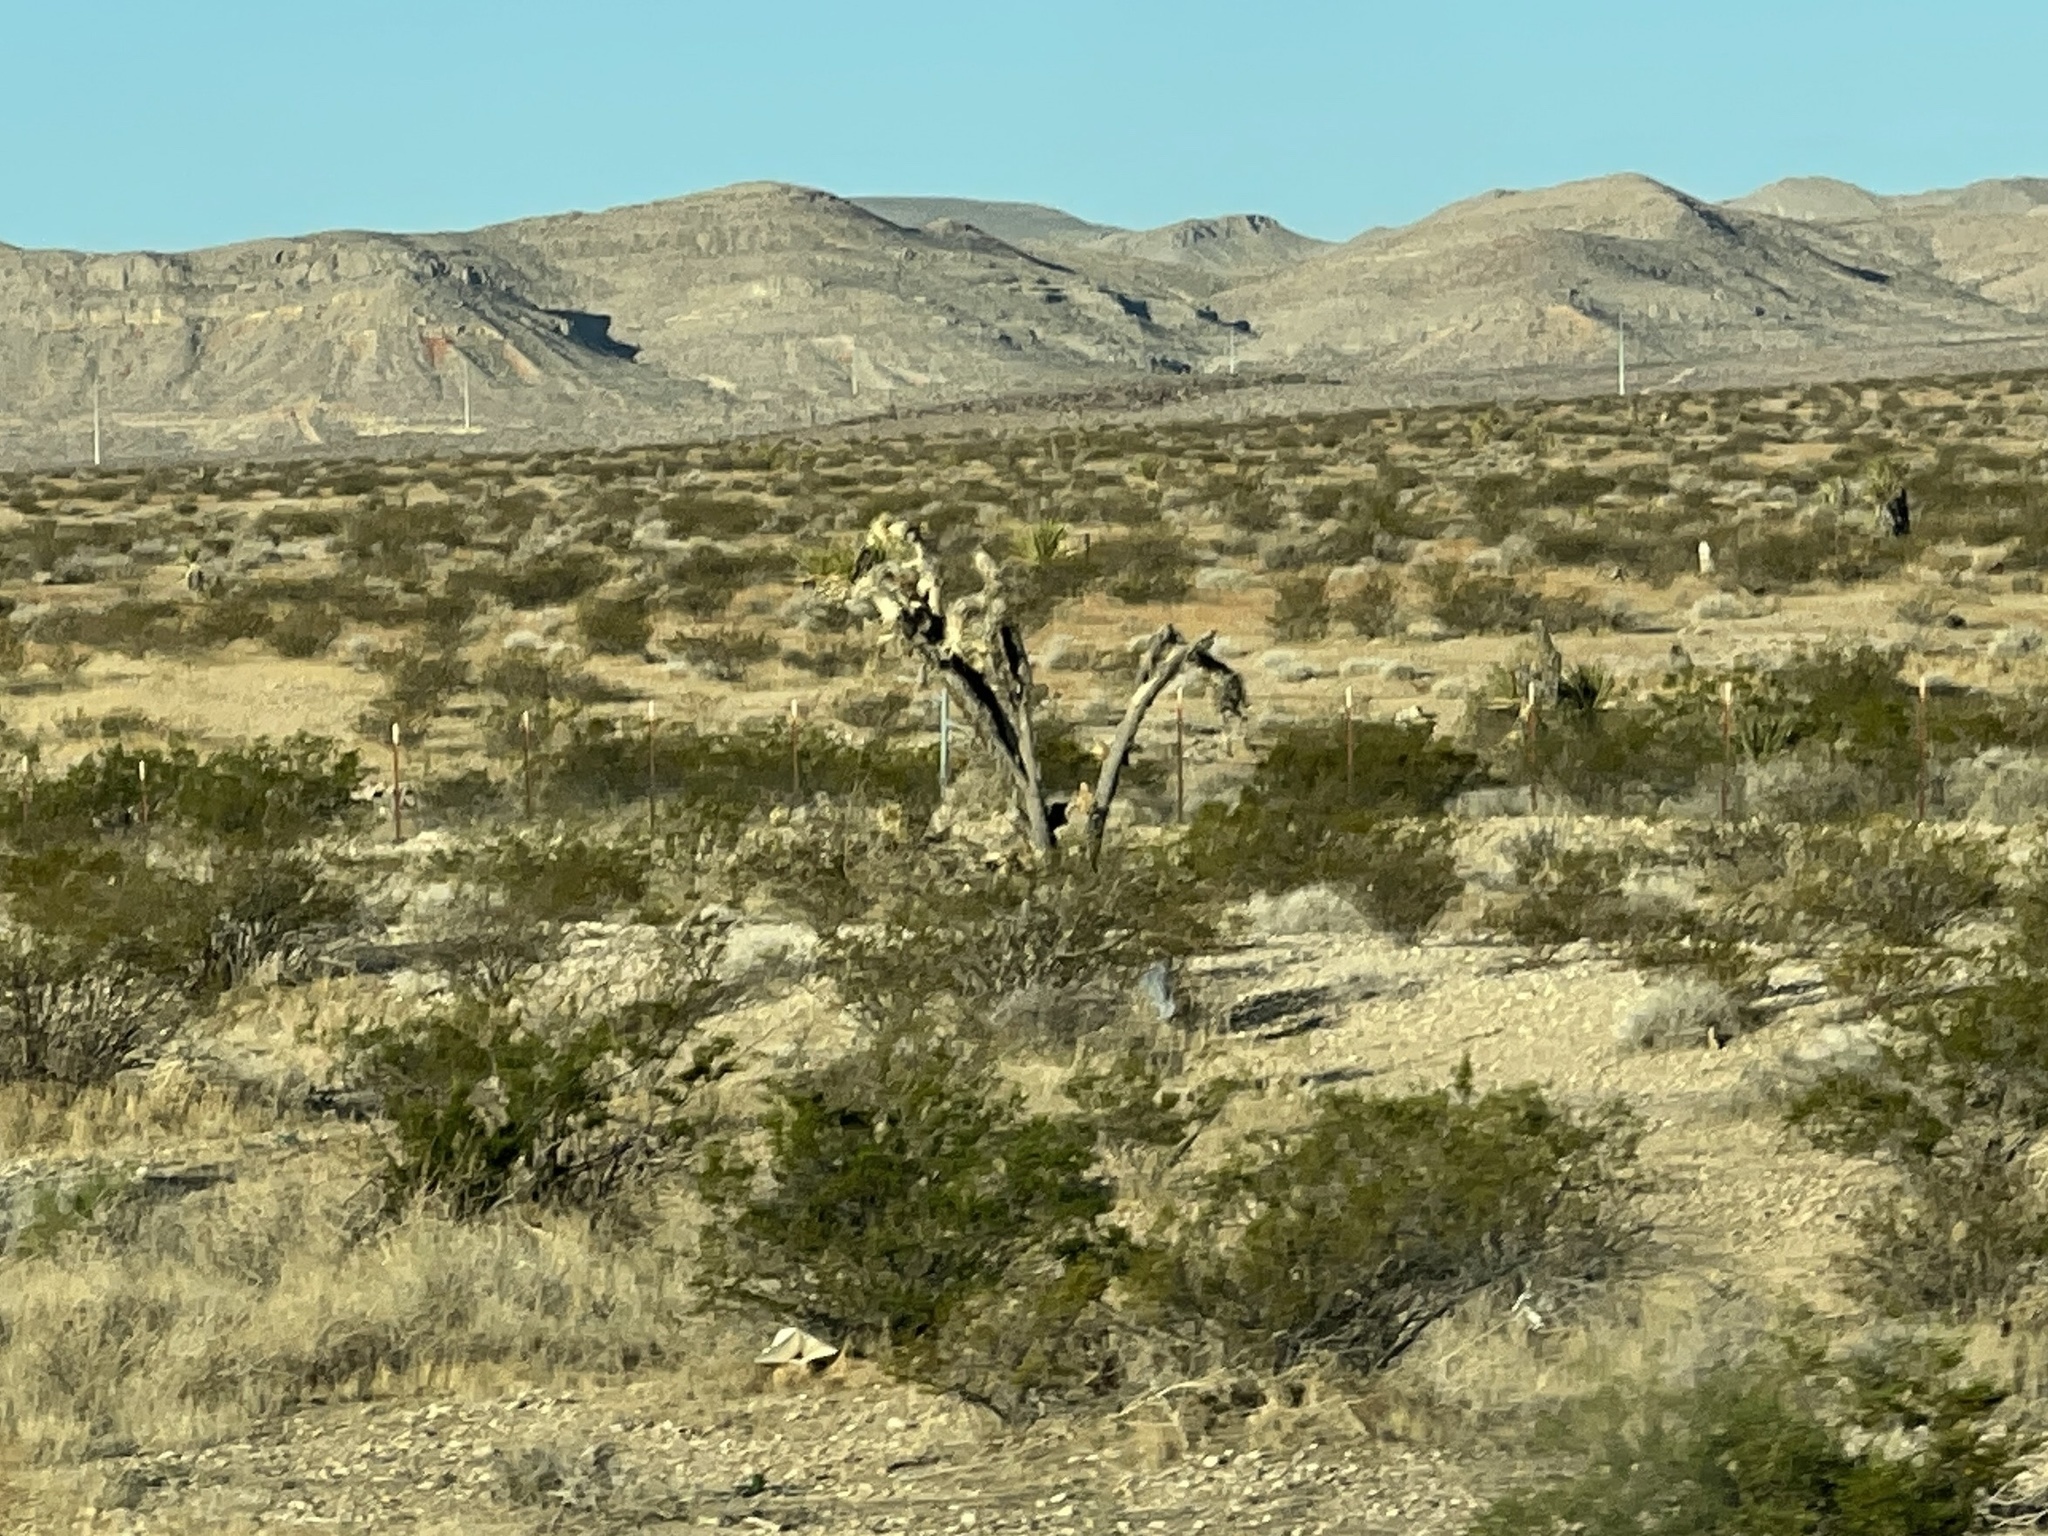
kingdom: Plantae
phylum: Tracheophyta
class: Liliopsida
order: Asparagales
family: Asparagaceae
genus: Yucca
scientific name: Yucca brevifolia
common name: Joshua tree
